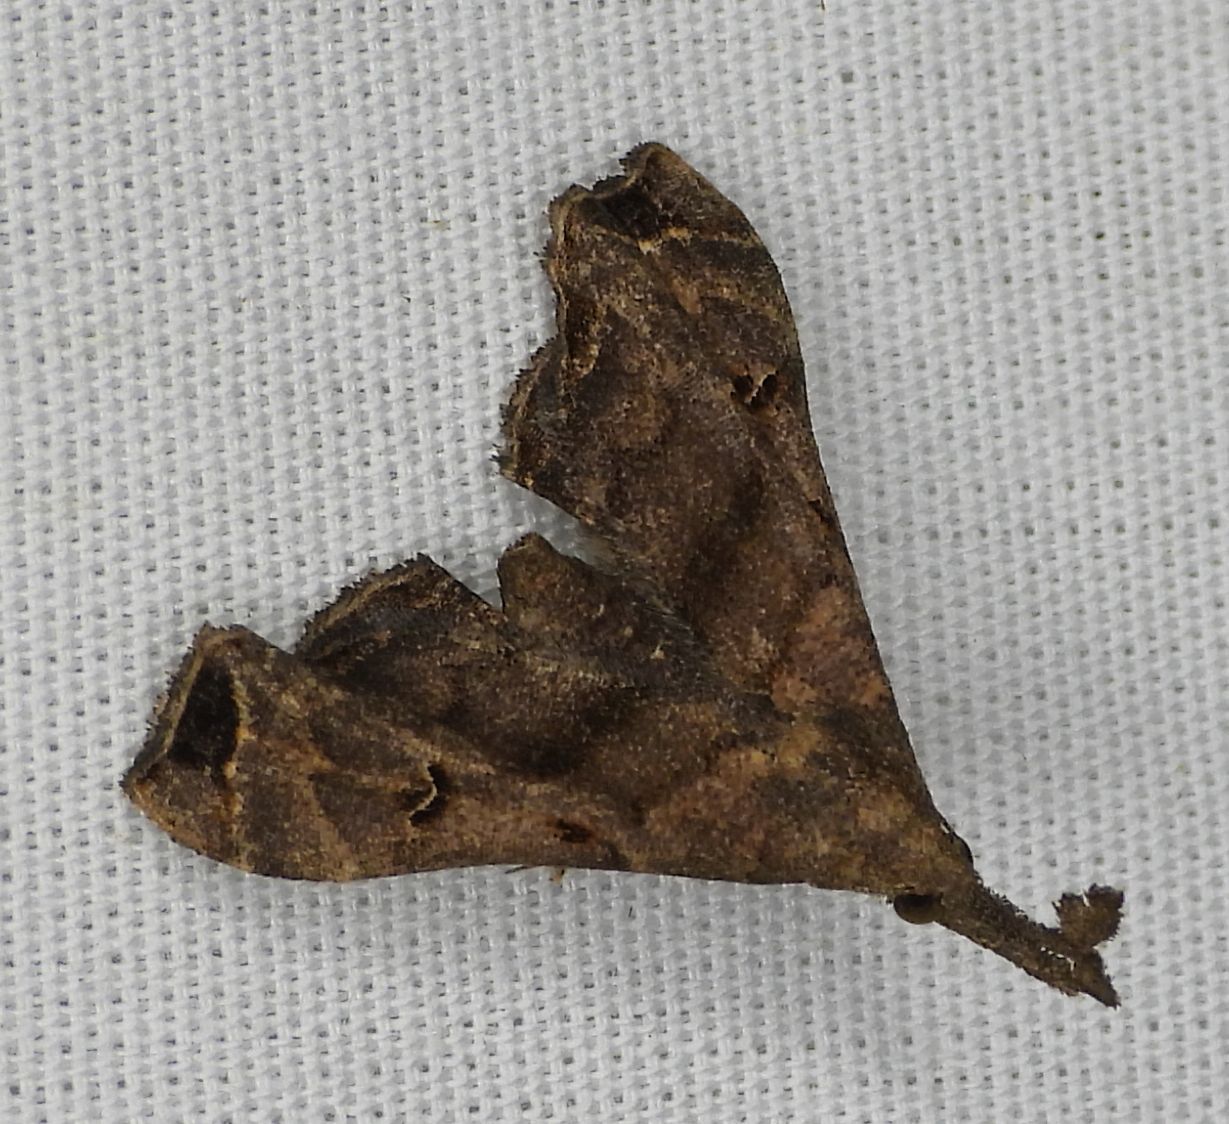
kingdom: Animalia
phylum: Arthropoda
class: Insecta
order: Lepidoptera
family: Erebidae
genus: Palthis
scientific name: Palthis asopialis
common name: Faint-spotted palthis moth
